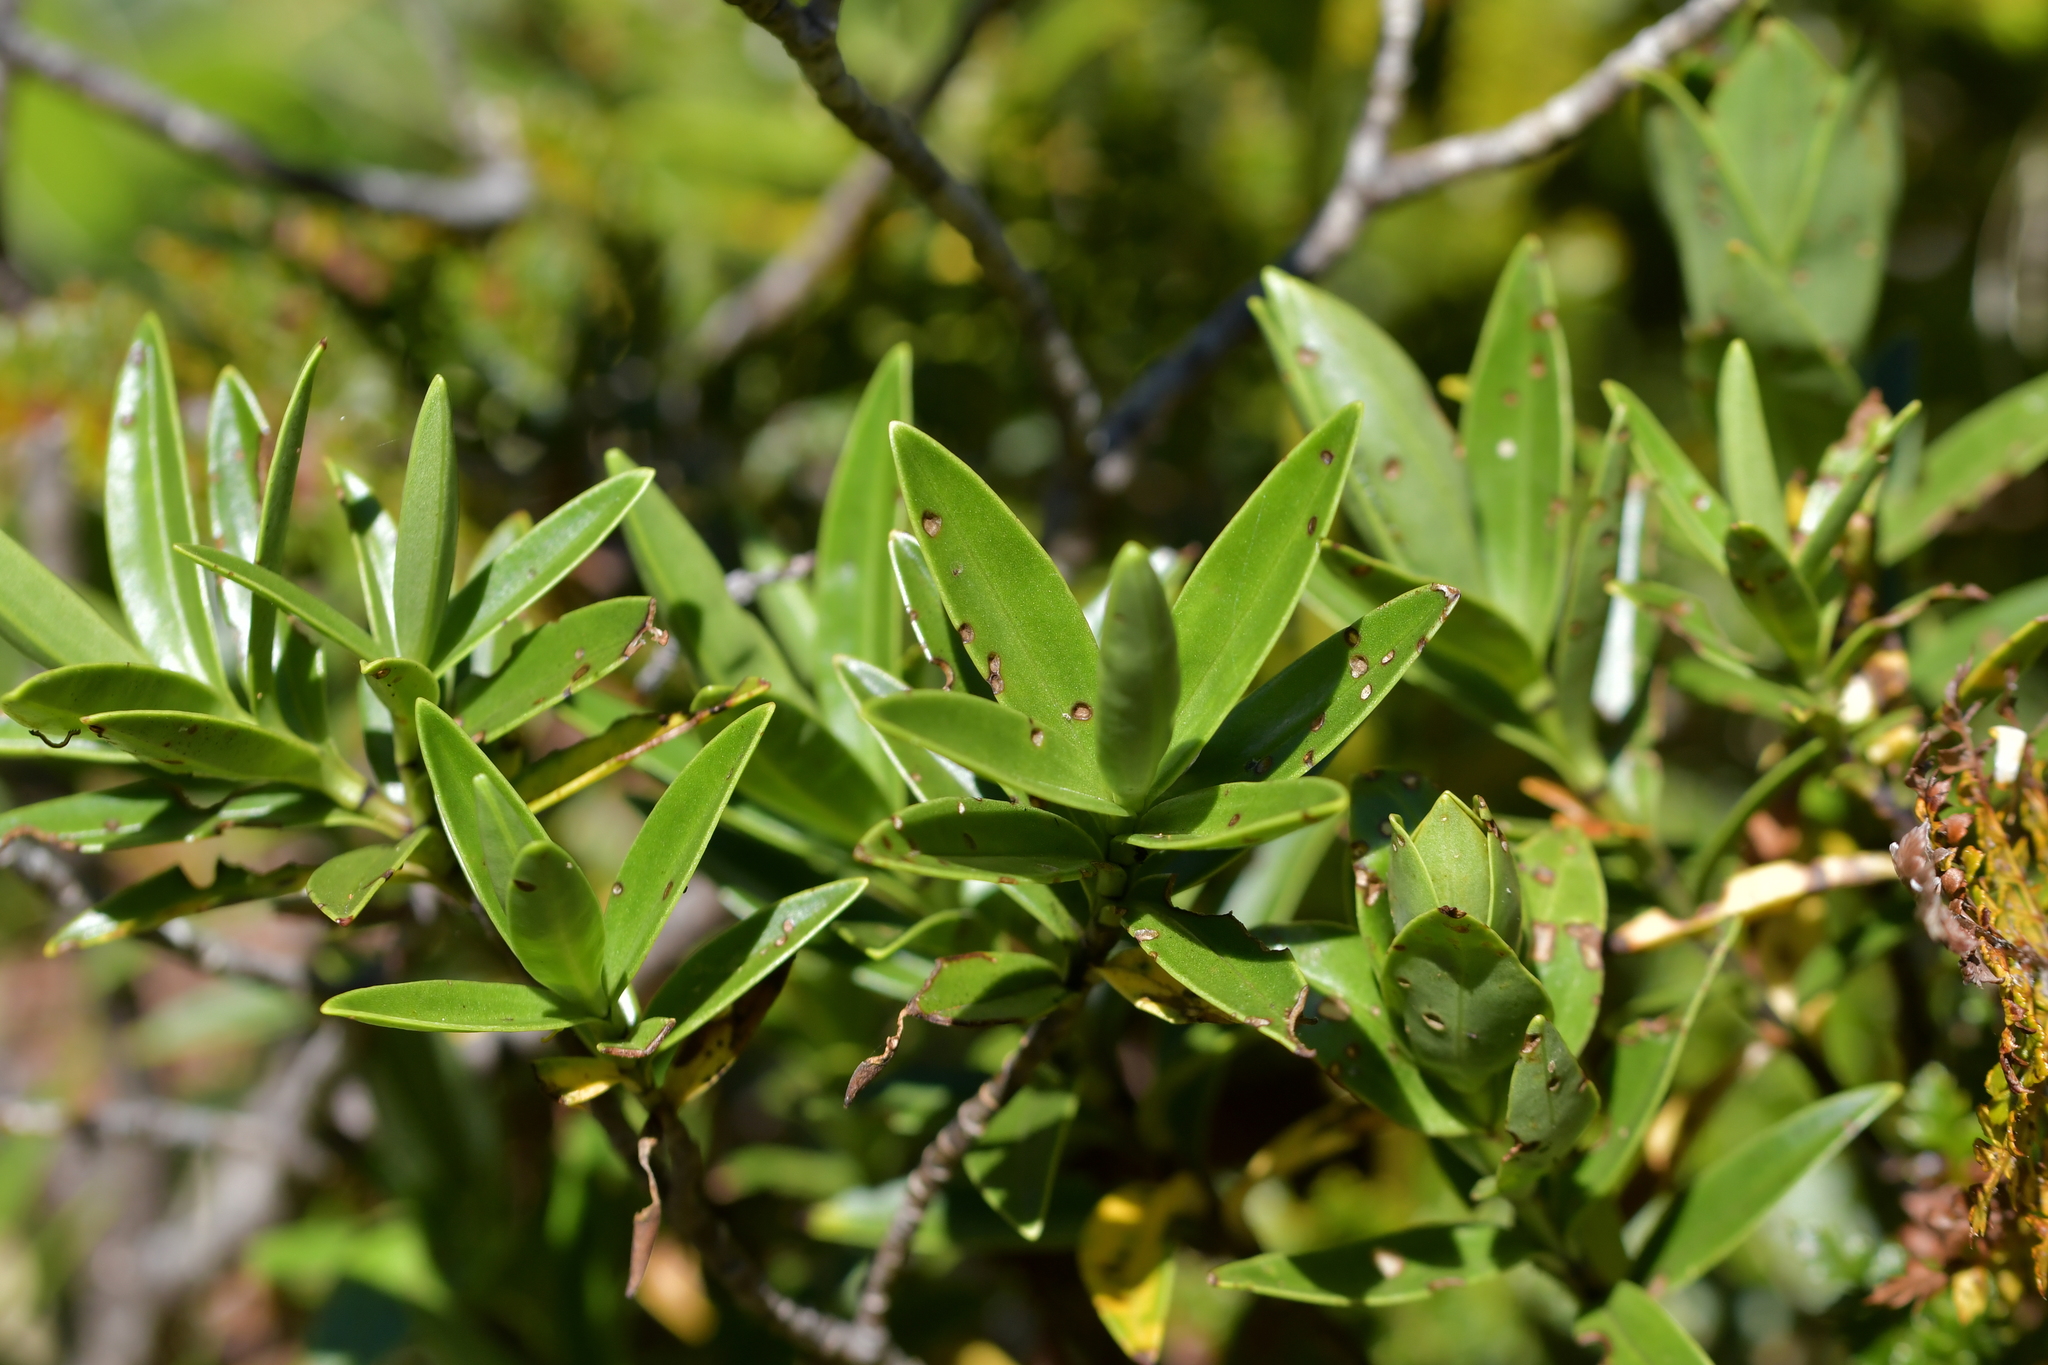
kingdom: Plantae
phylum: Tracheophyta
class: Magnoliopsida
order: Lamiales
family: Plantaginaceae
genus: Veronica
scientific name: Veronica subalpina
